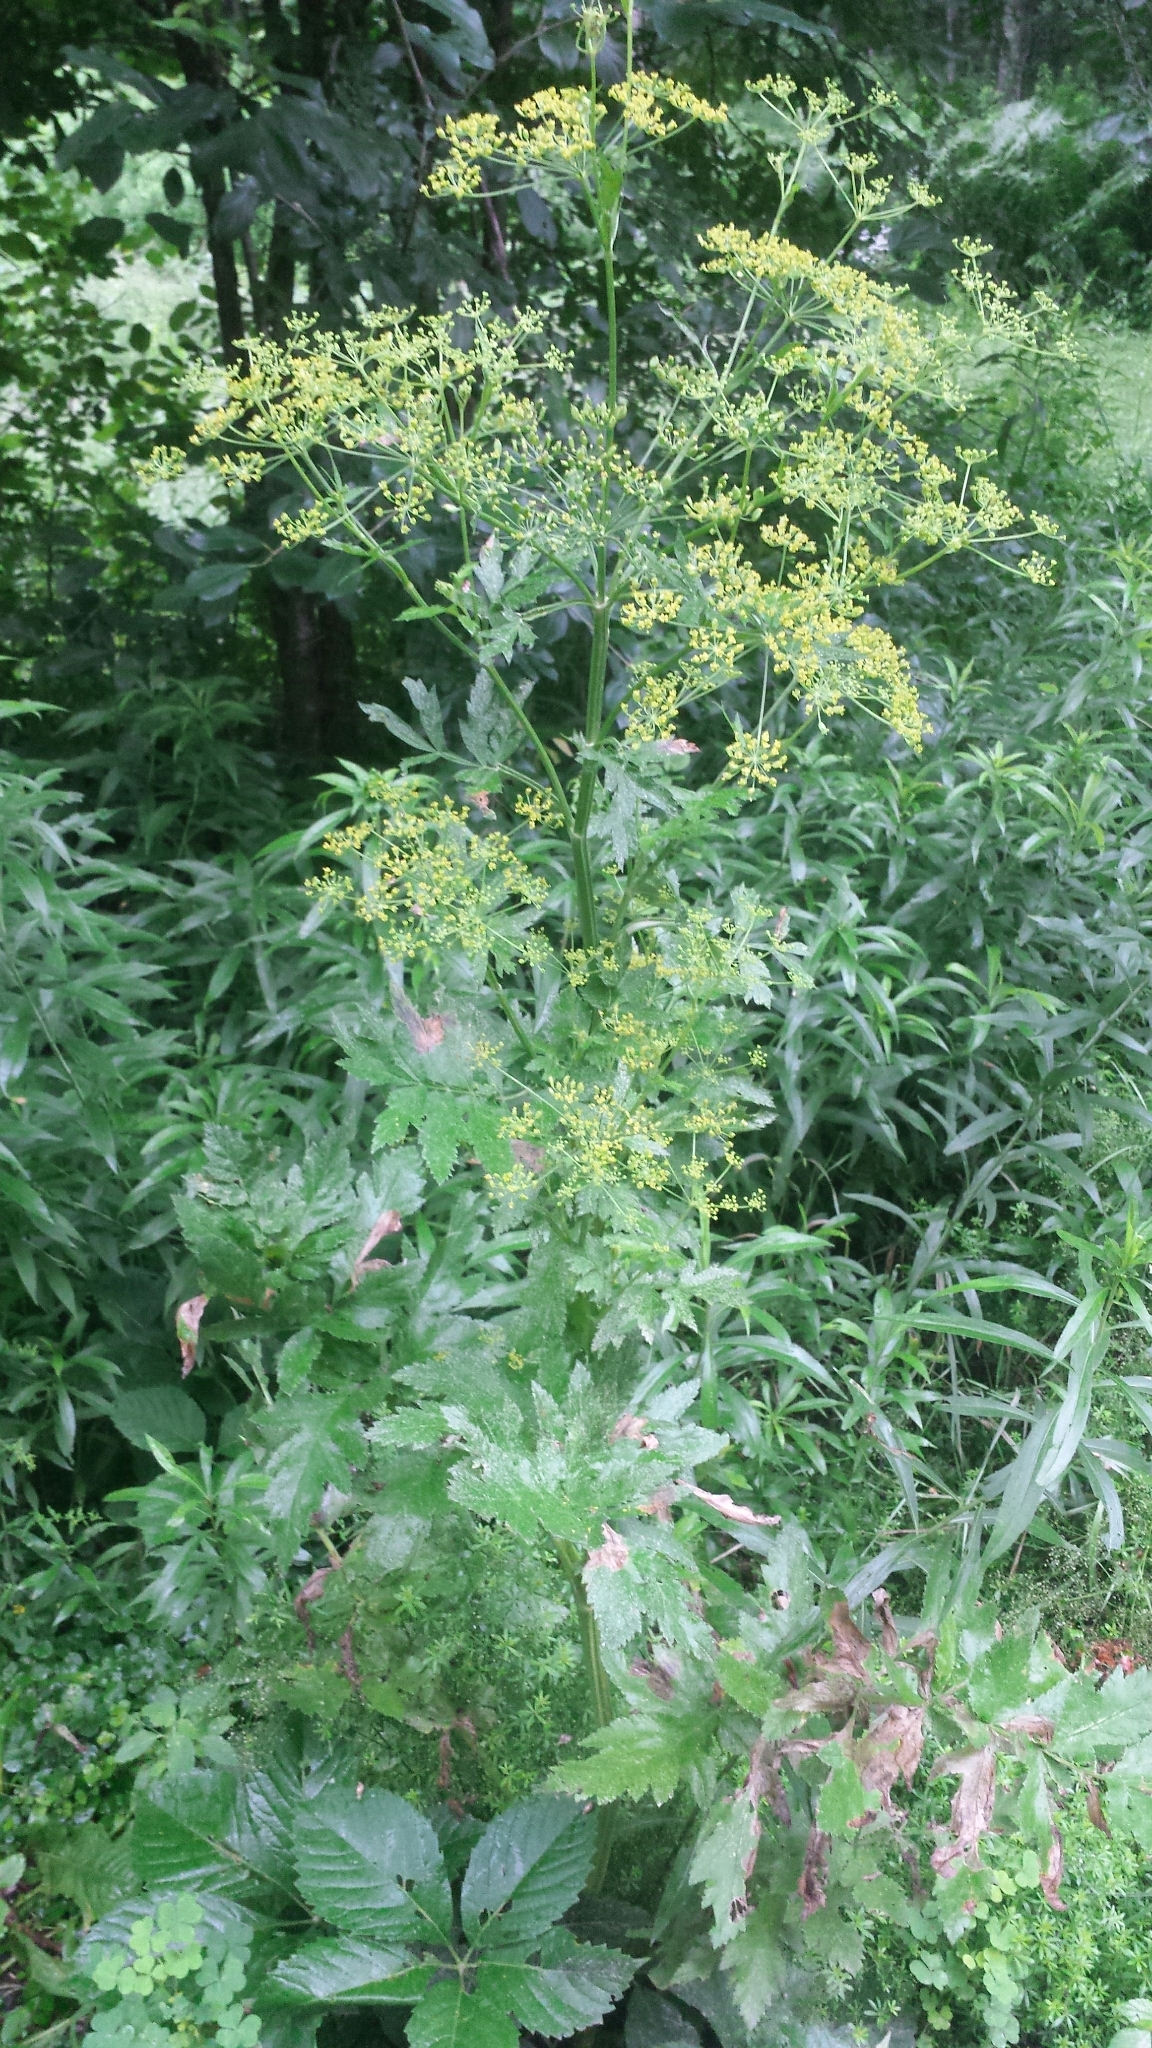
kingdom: Plantae
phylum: Tracheophyta
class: Magnoliopsida
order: Apiales
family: Apiaceae
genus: Pastinaca
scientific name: Pastinaca sativa
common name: Wild parsnip
